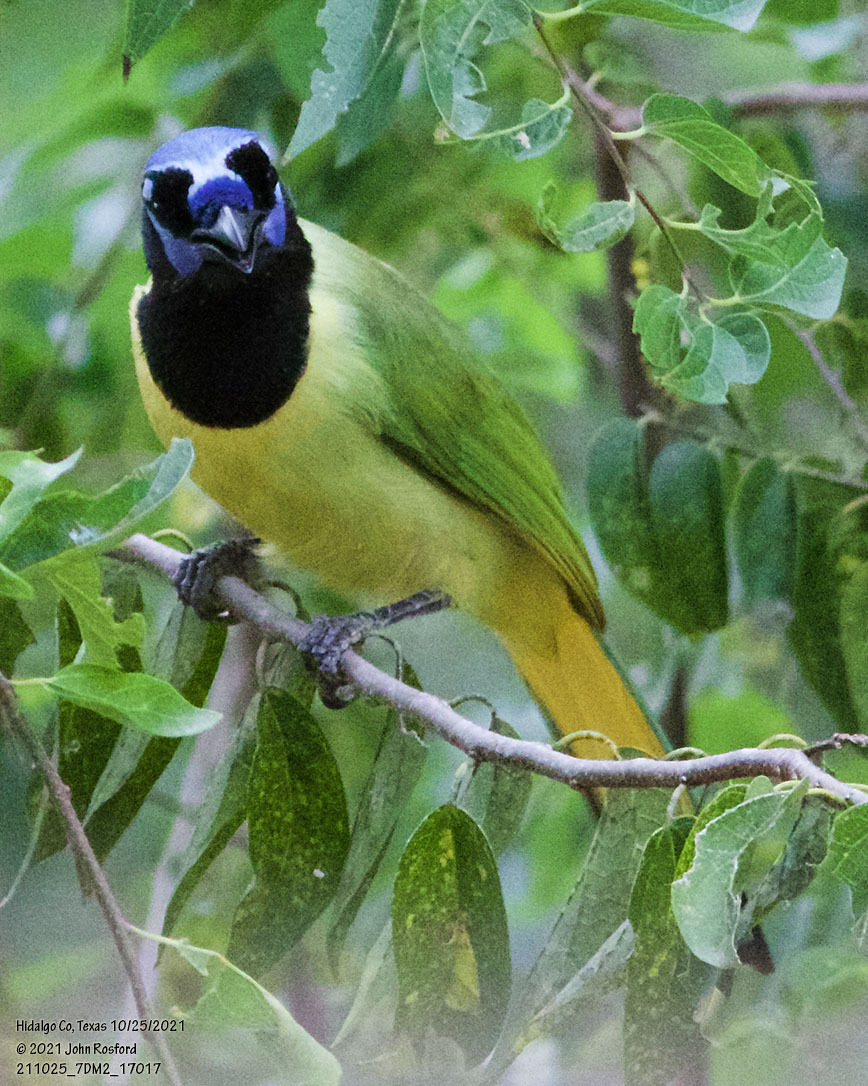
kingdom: Animalia
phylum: Chordata
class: Aves
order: Passeriformes
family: Corvidae
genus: Cyanocorax
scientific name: Cyanocorax yncas
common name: Green jay
